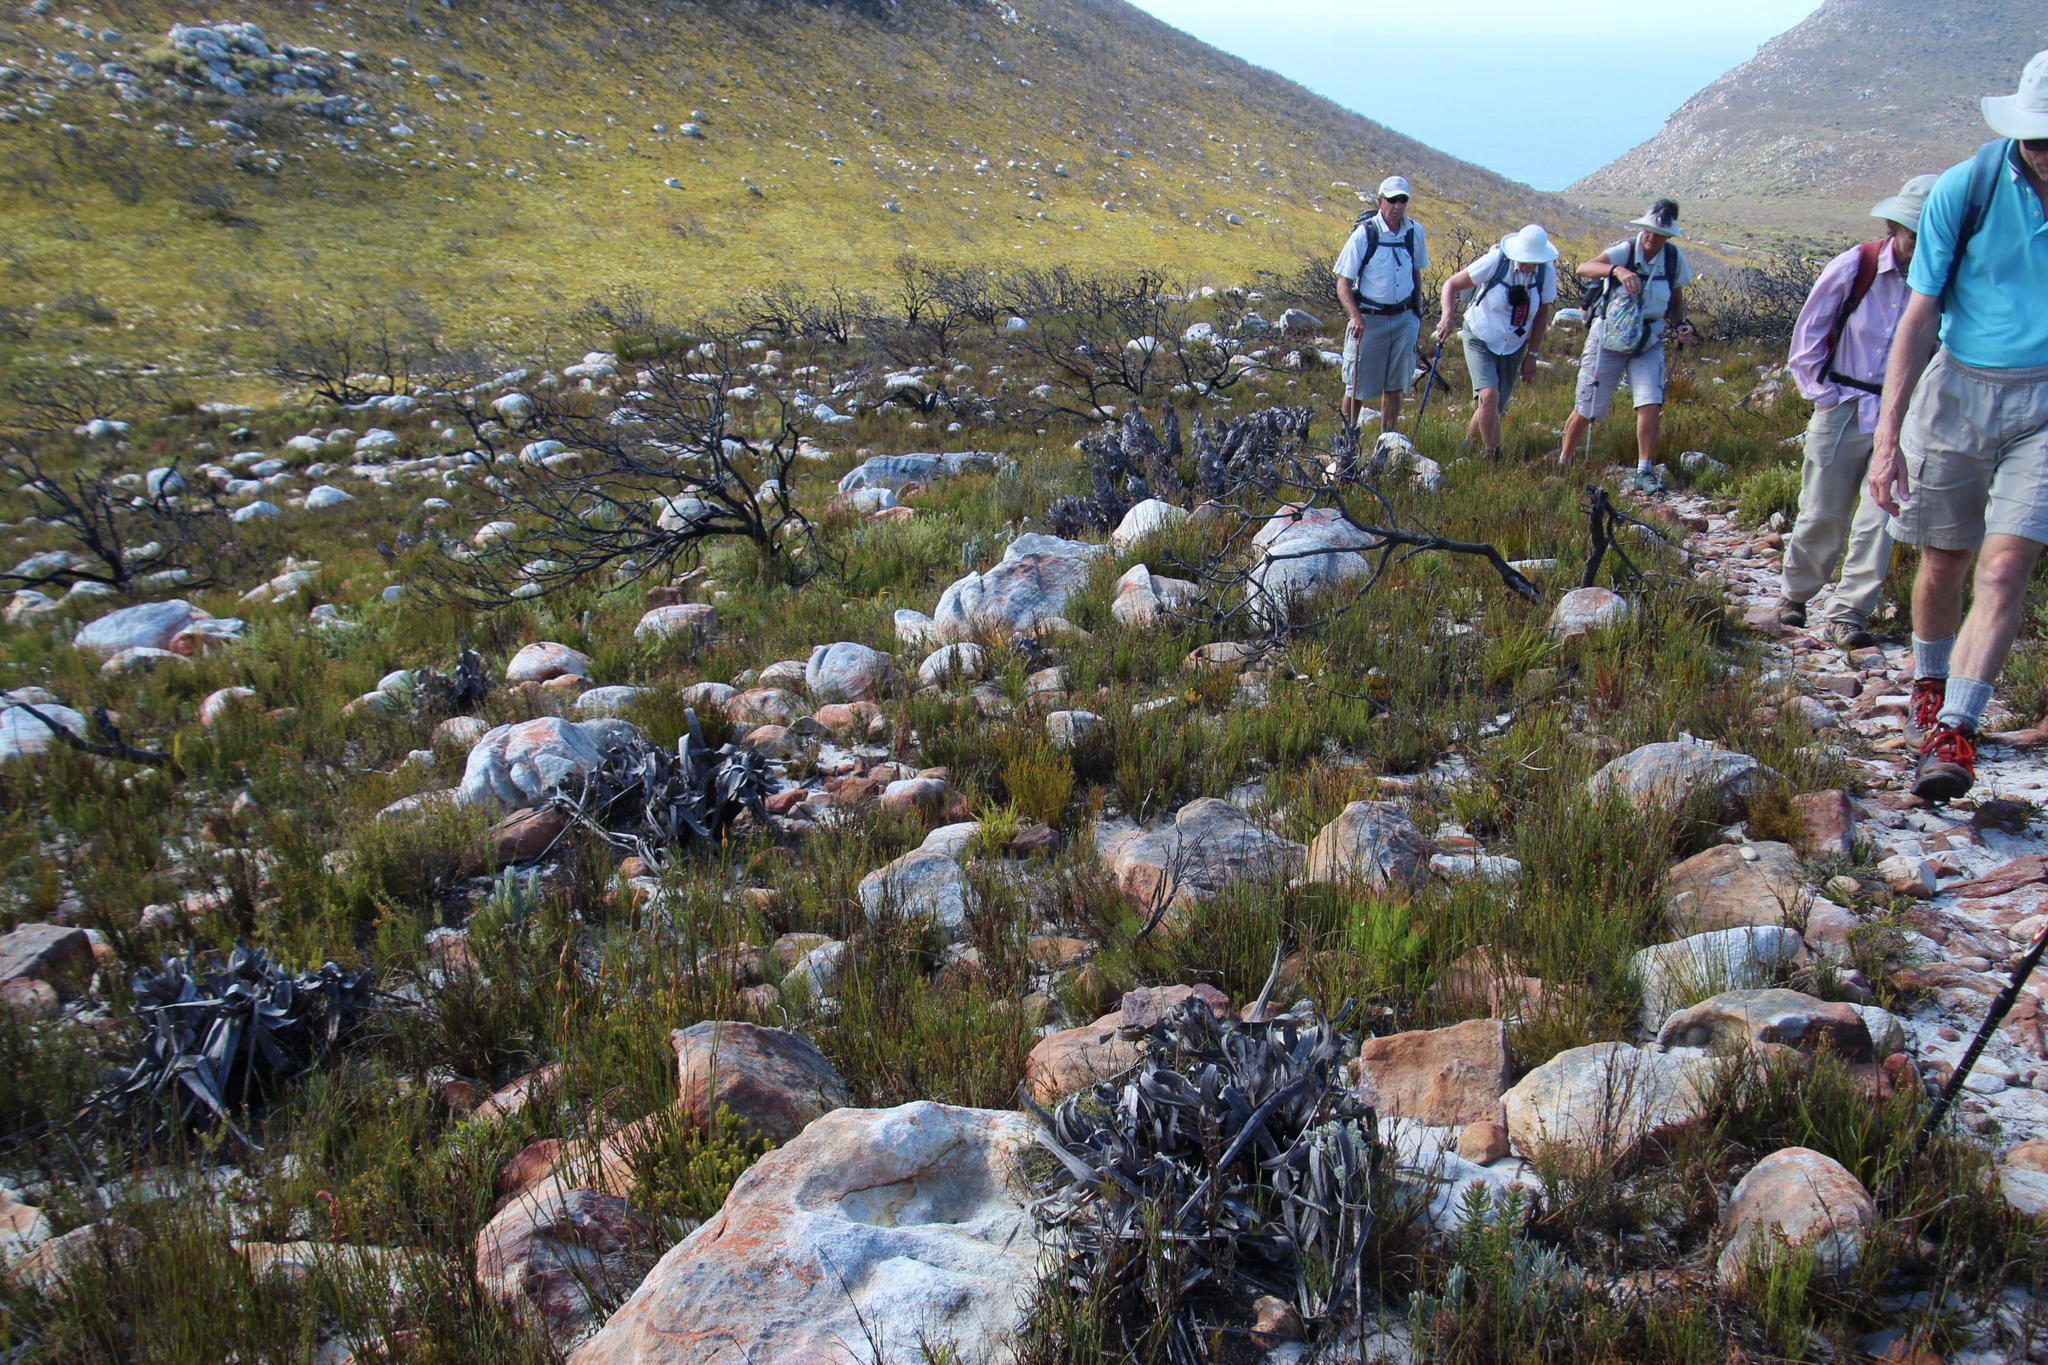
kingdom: Plantae
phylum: Tracheophyta
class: Liliopsida
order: Poales
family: Cyperaceae
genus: Tetraria
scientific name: Tetraria thermalis
